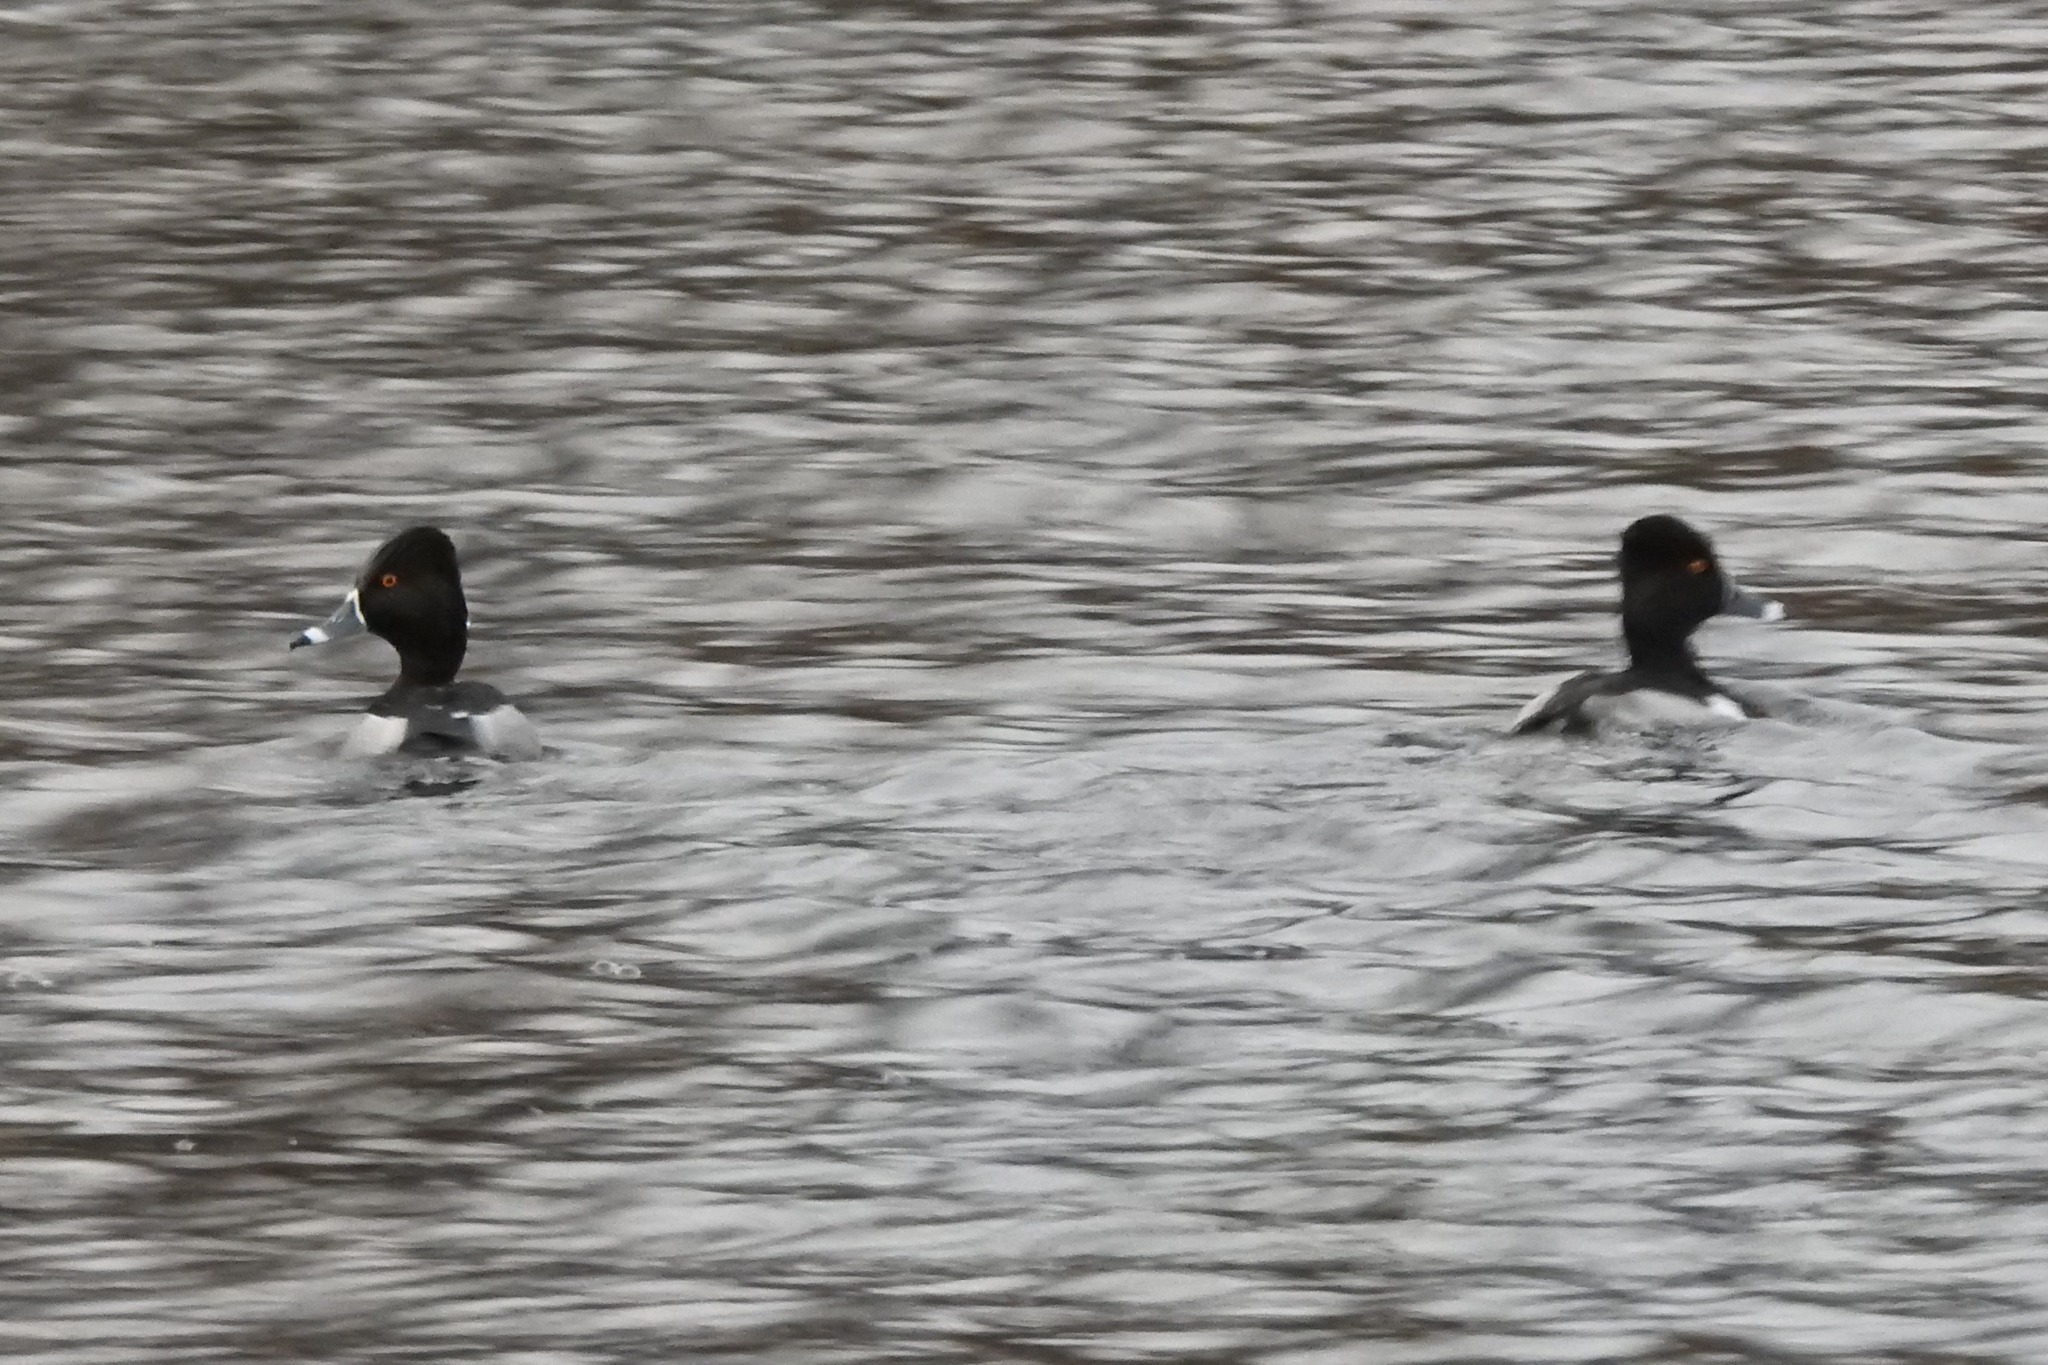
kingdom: Animalia
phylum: Chordata
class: Aves
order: Anseriformes
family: Anatidae
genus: Aythya
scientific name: Aythya collaris
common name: Ring-necked duck
